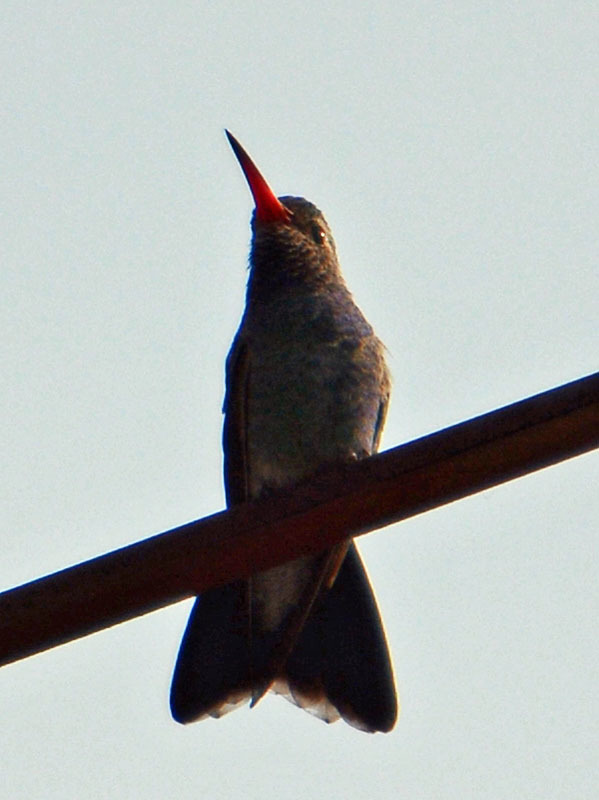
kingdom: Animalia
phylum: Chordata
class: Aves
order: Apodiformes
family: Trochilidae
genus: Cynanthus
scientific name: Cynanthus latirostris
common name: Broad-billed hummingbird
